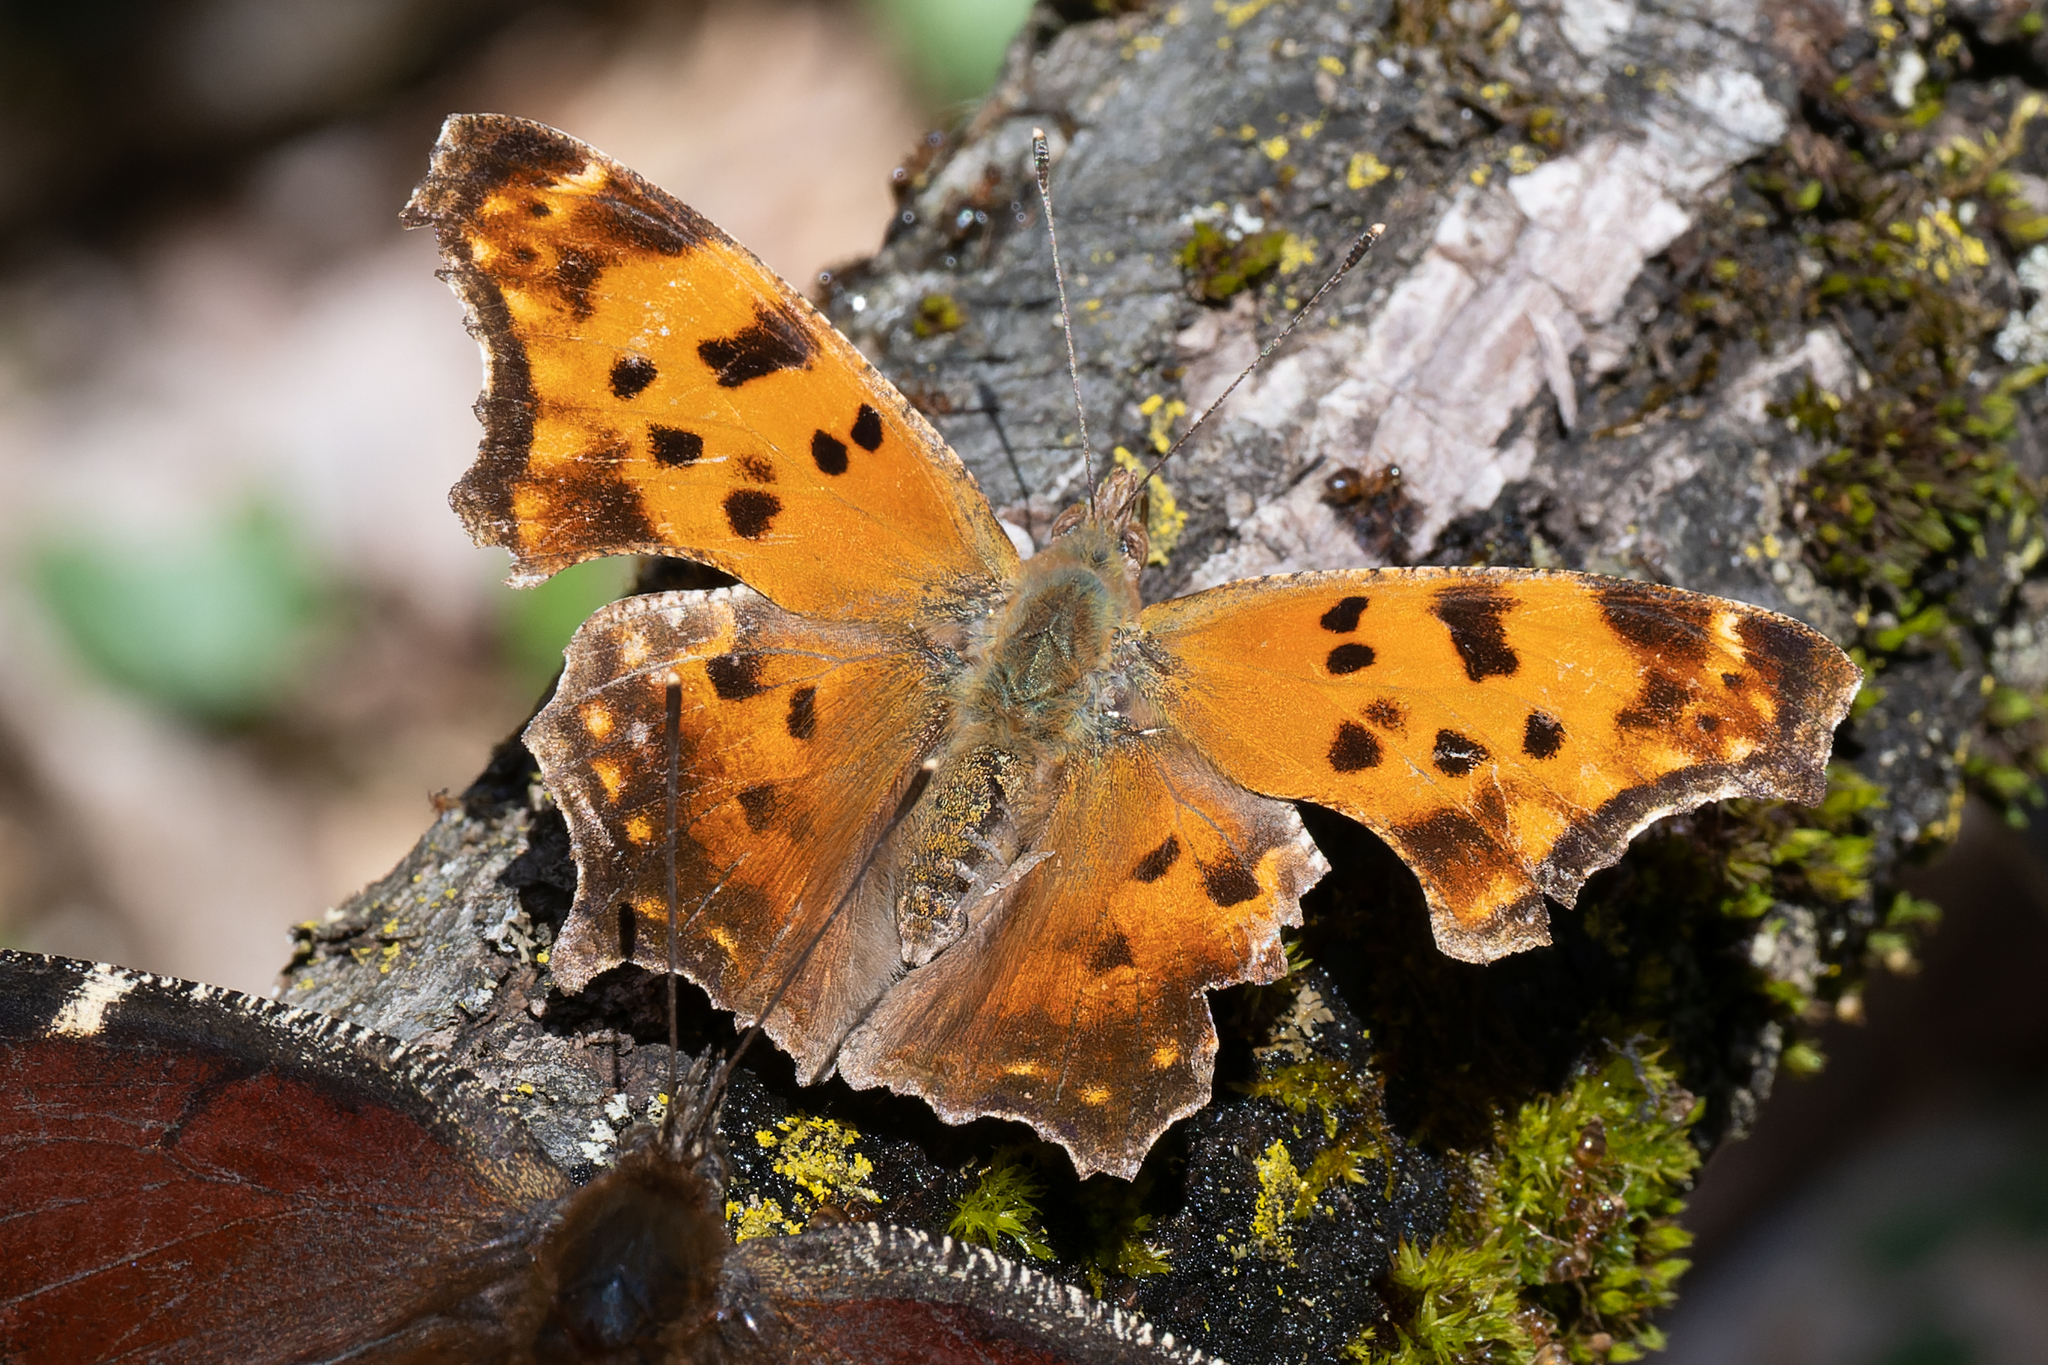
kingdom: Animalia
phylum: Arthropoda
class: Insecta
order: Lepidoptera
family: Nymphalidae
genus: Polygonia
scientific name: Polygonia comma
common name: Eastern comma
